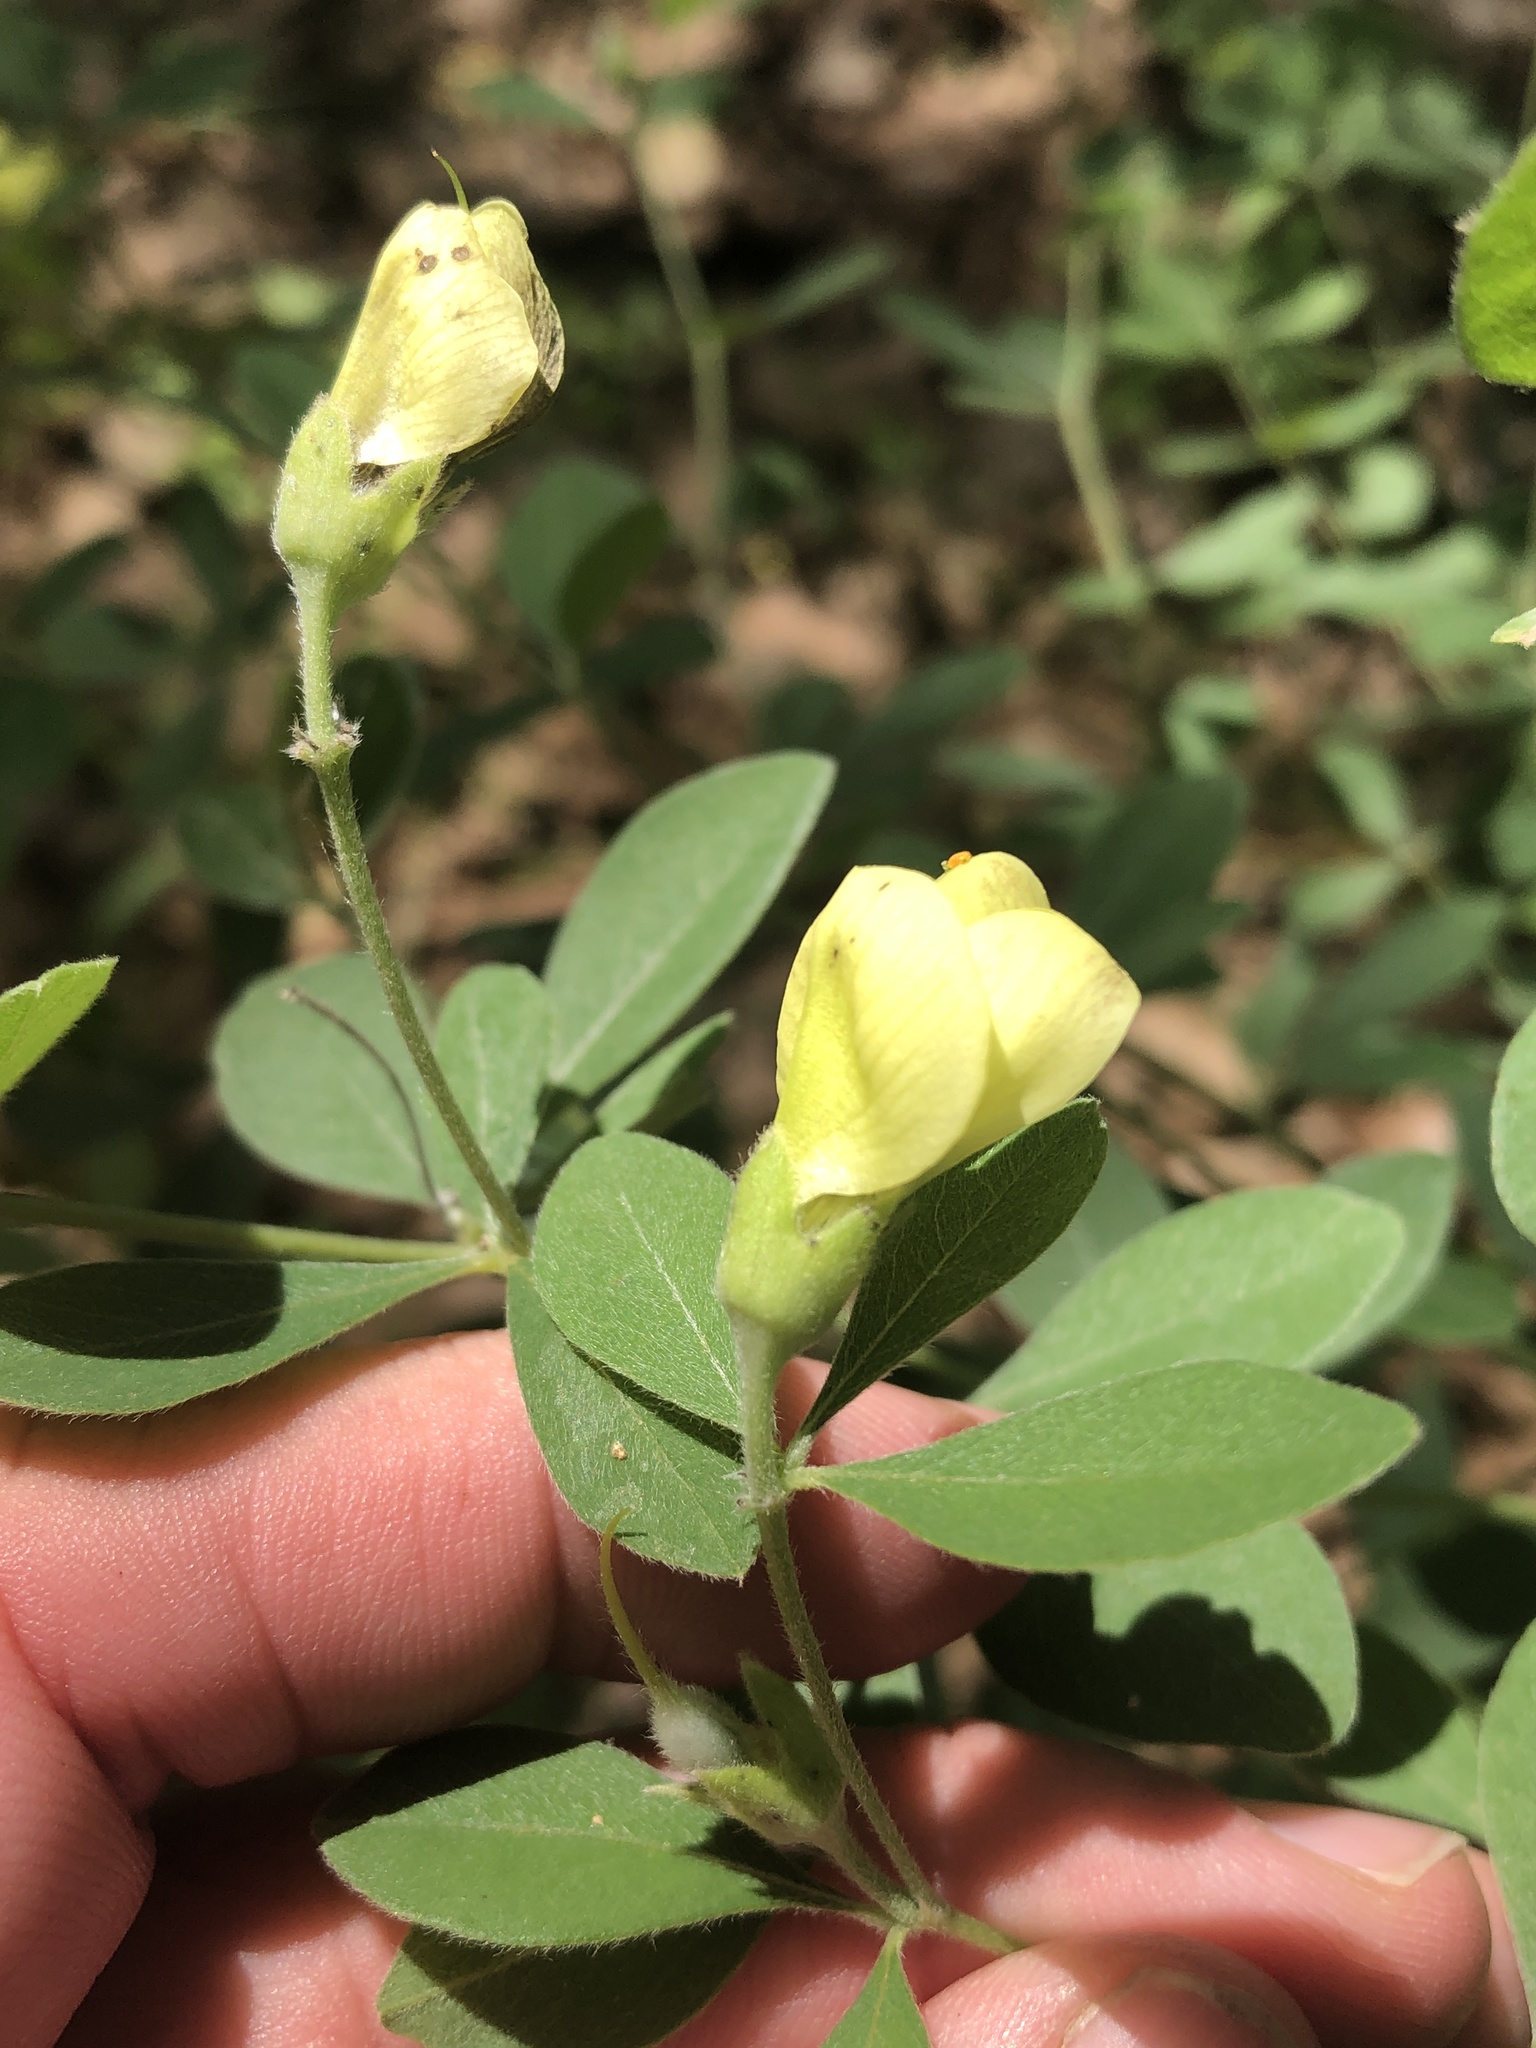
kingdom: Plantae
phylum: Tracheophyta
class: Magnoliopsida
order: Fabales
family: Fabaceae
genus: Baptisia
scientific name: Baptisia nuttalliana
